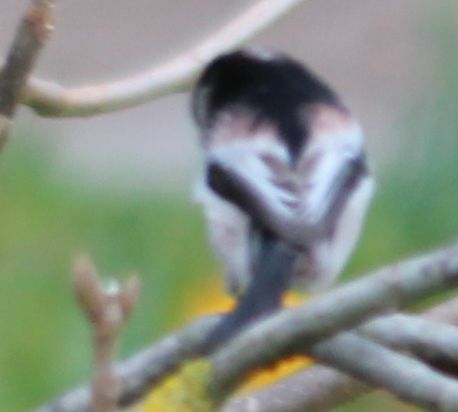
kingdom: Animalia
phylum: Chordata
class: Aves
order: Passeriformes
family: Aegithalidae
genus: Aegithalos
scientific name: Aegithalos caudatus
